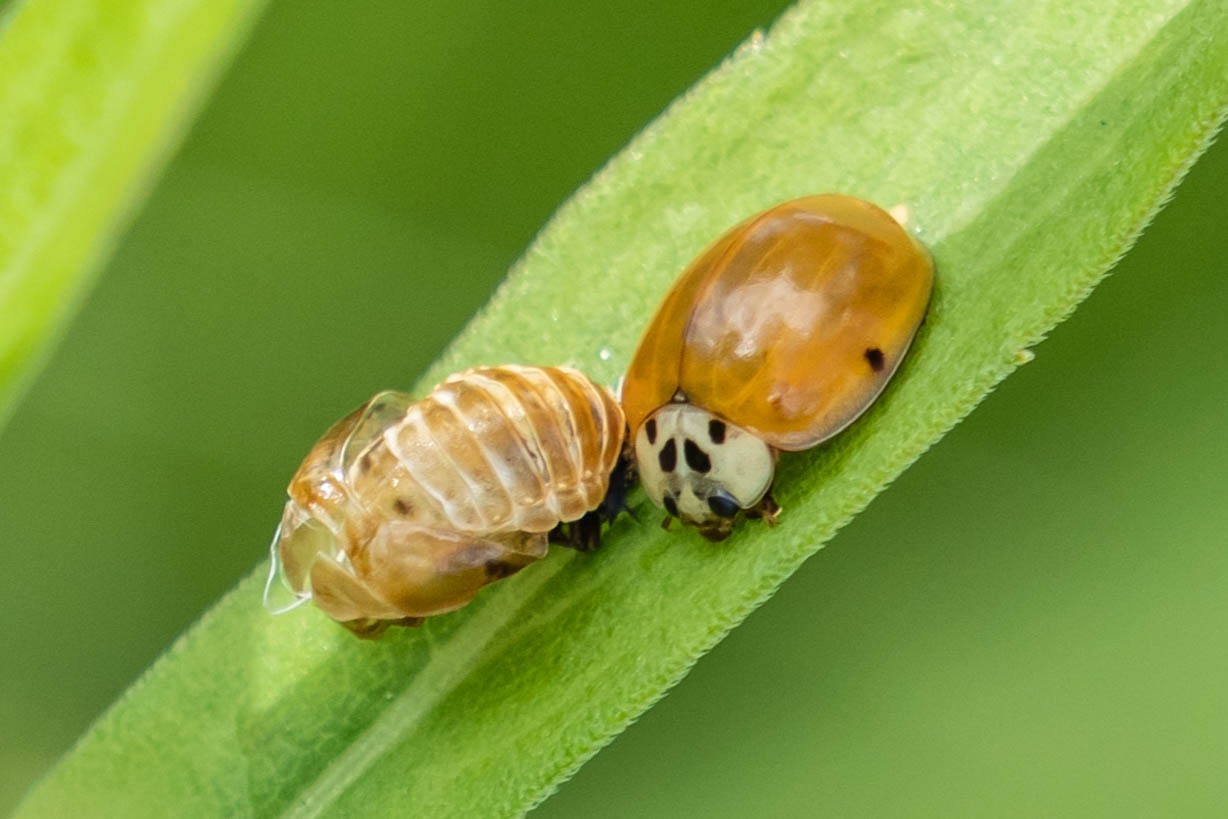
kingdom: Animalia
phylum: Arthropoda
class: Insecta
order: Coleoptera
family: Coccinellidae
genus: Harmonia
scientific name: Harmonia axyridis
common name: Harlequin ladybird
